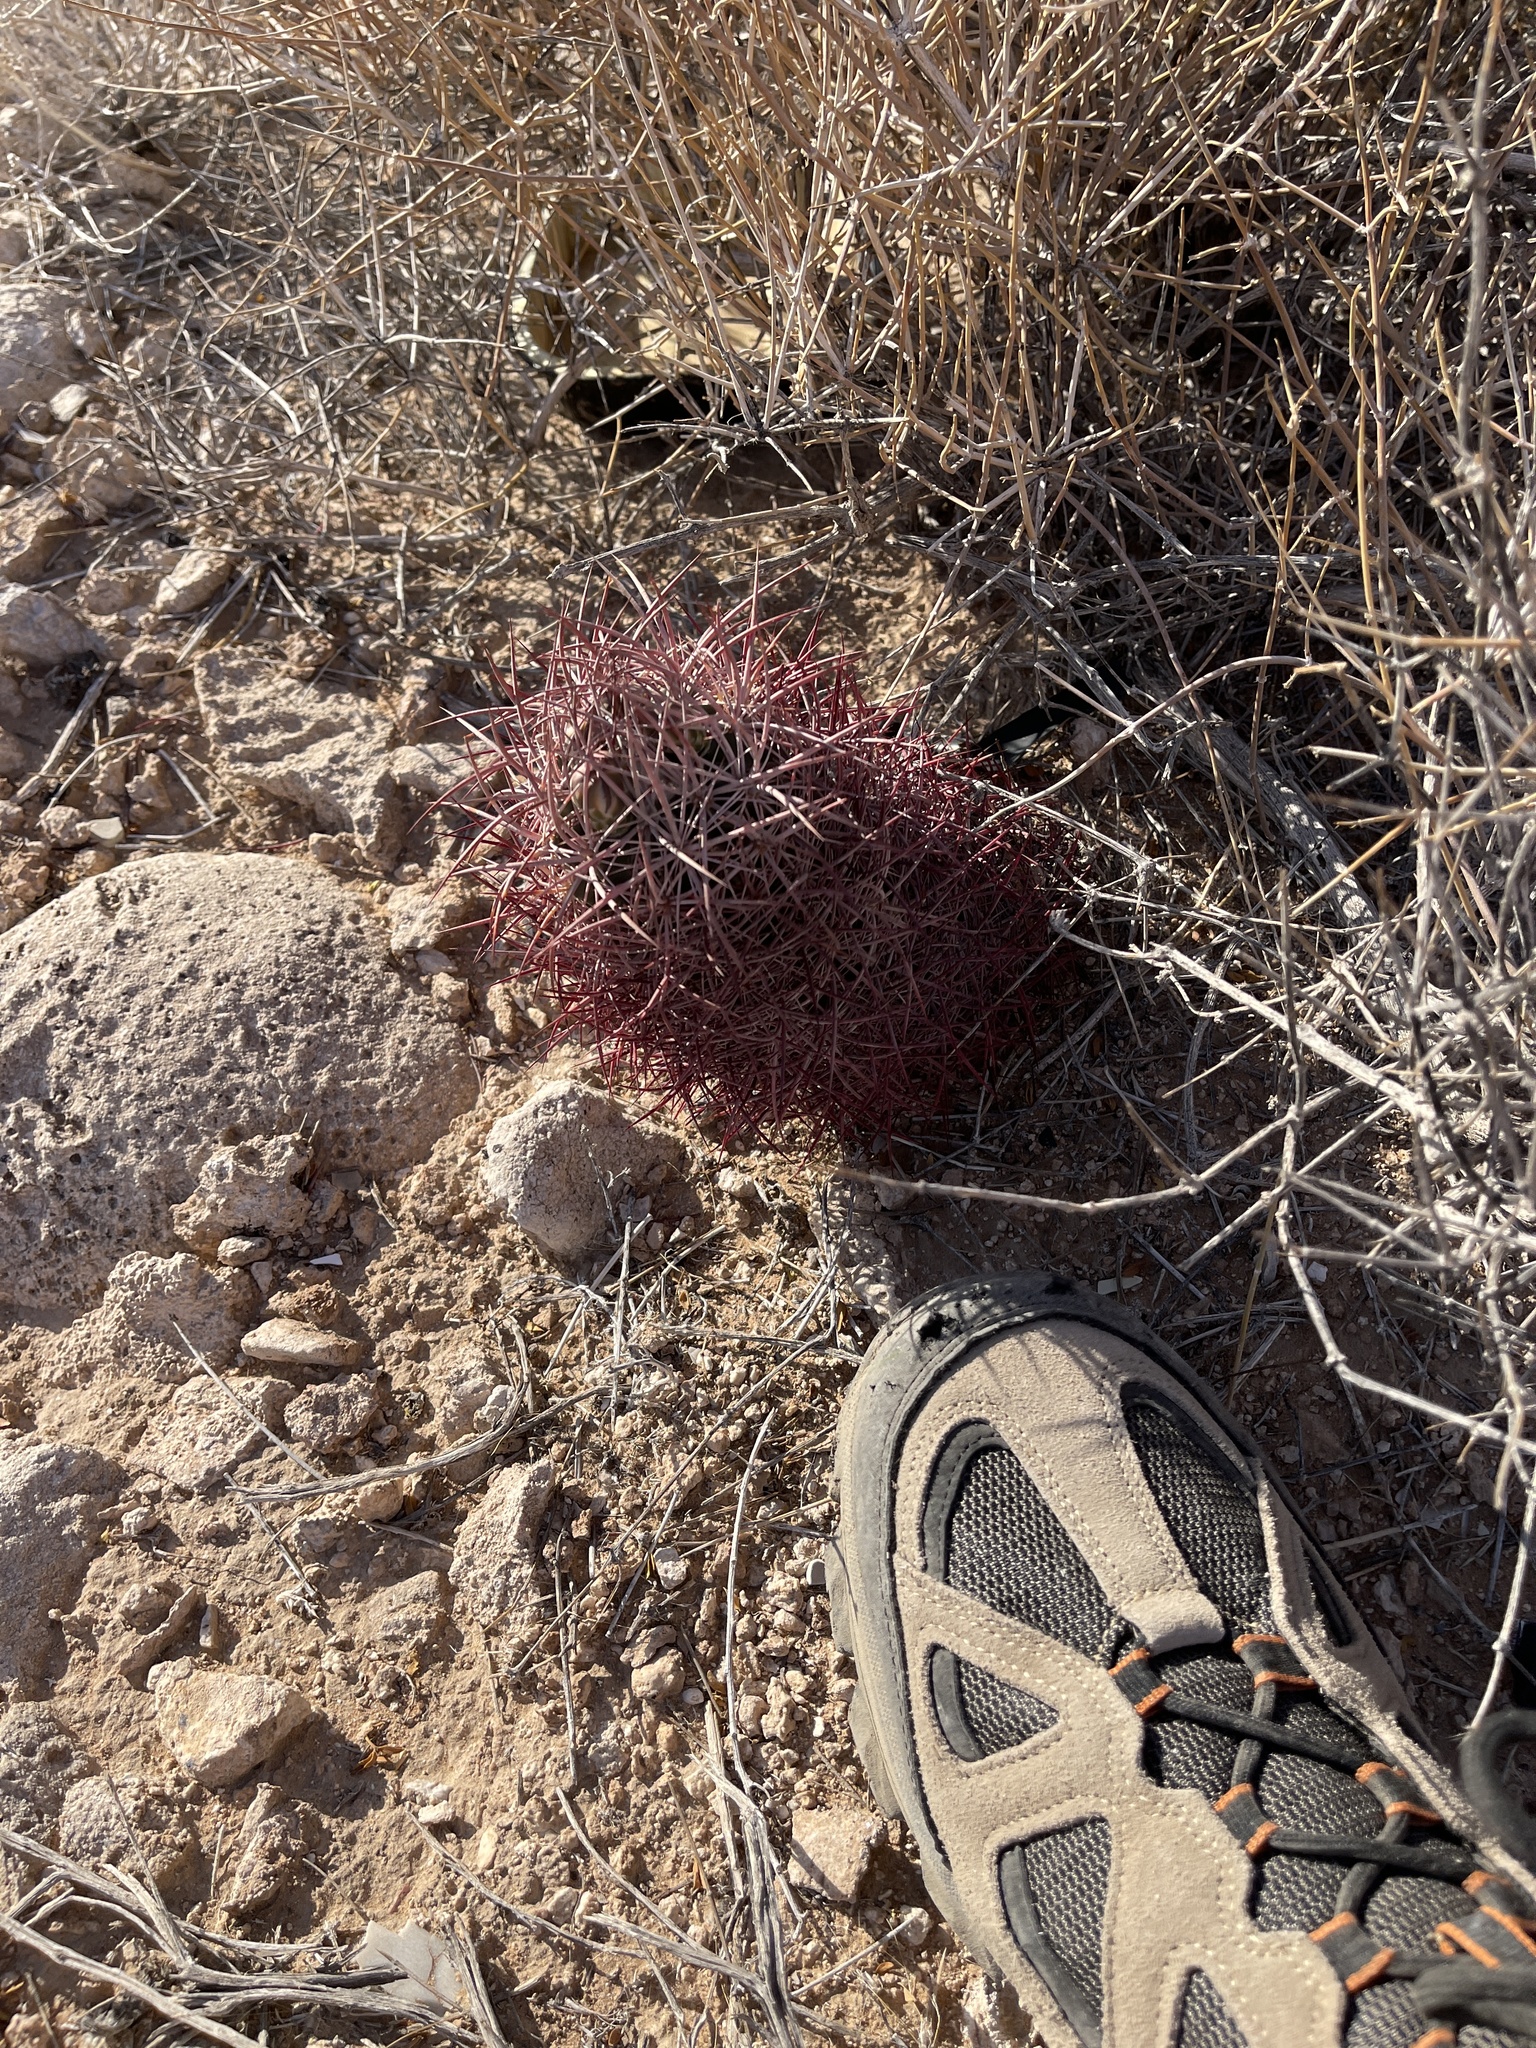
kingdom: Plantae
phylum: Tracheophyta
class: Magnoliopsida
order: Caryophyllales
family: Cactaceae
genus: Sclerocactus
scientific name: Sclerocactus johnsonii
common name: Eight-spine fishhook cactus
